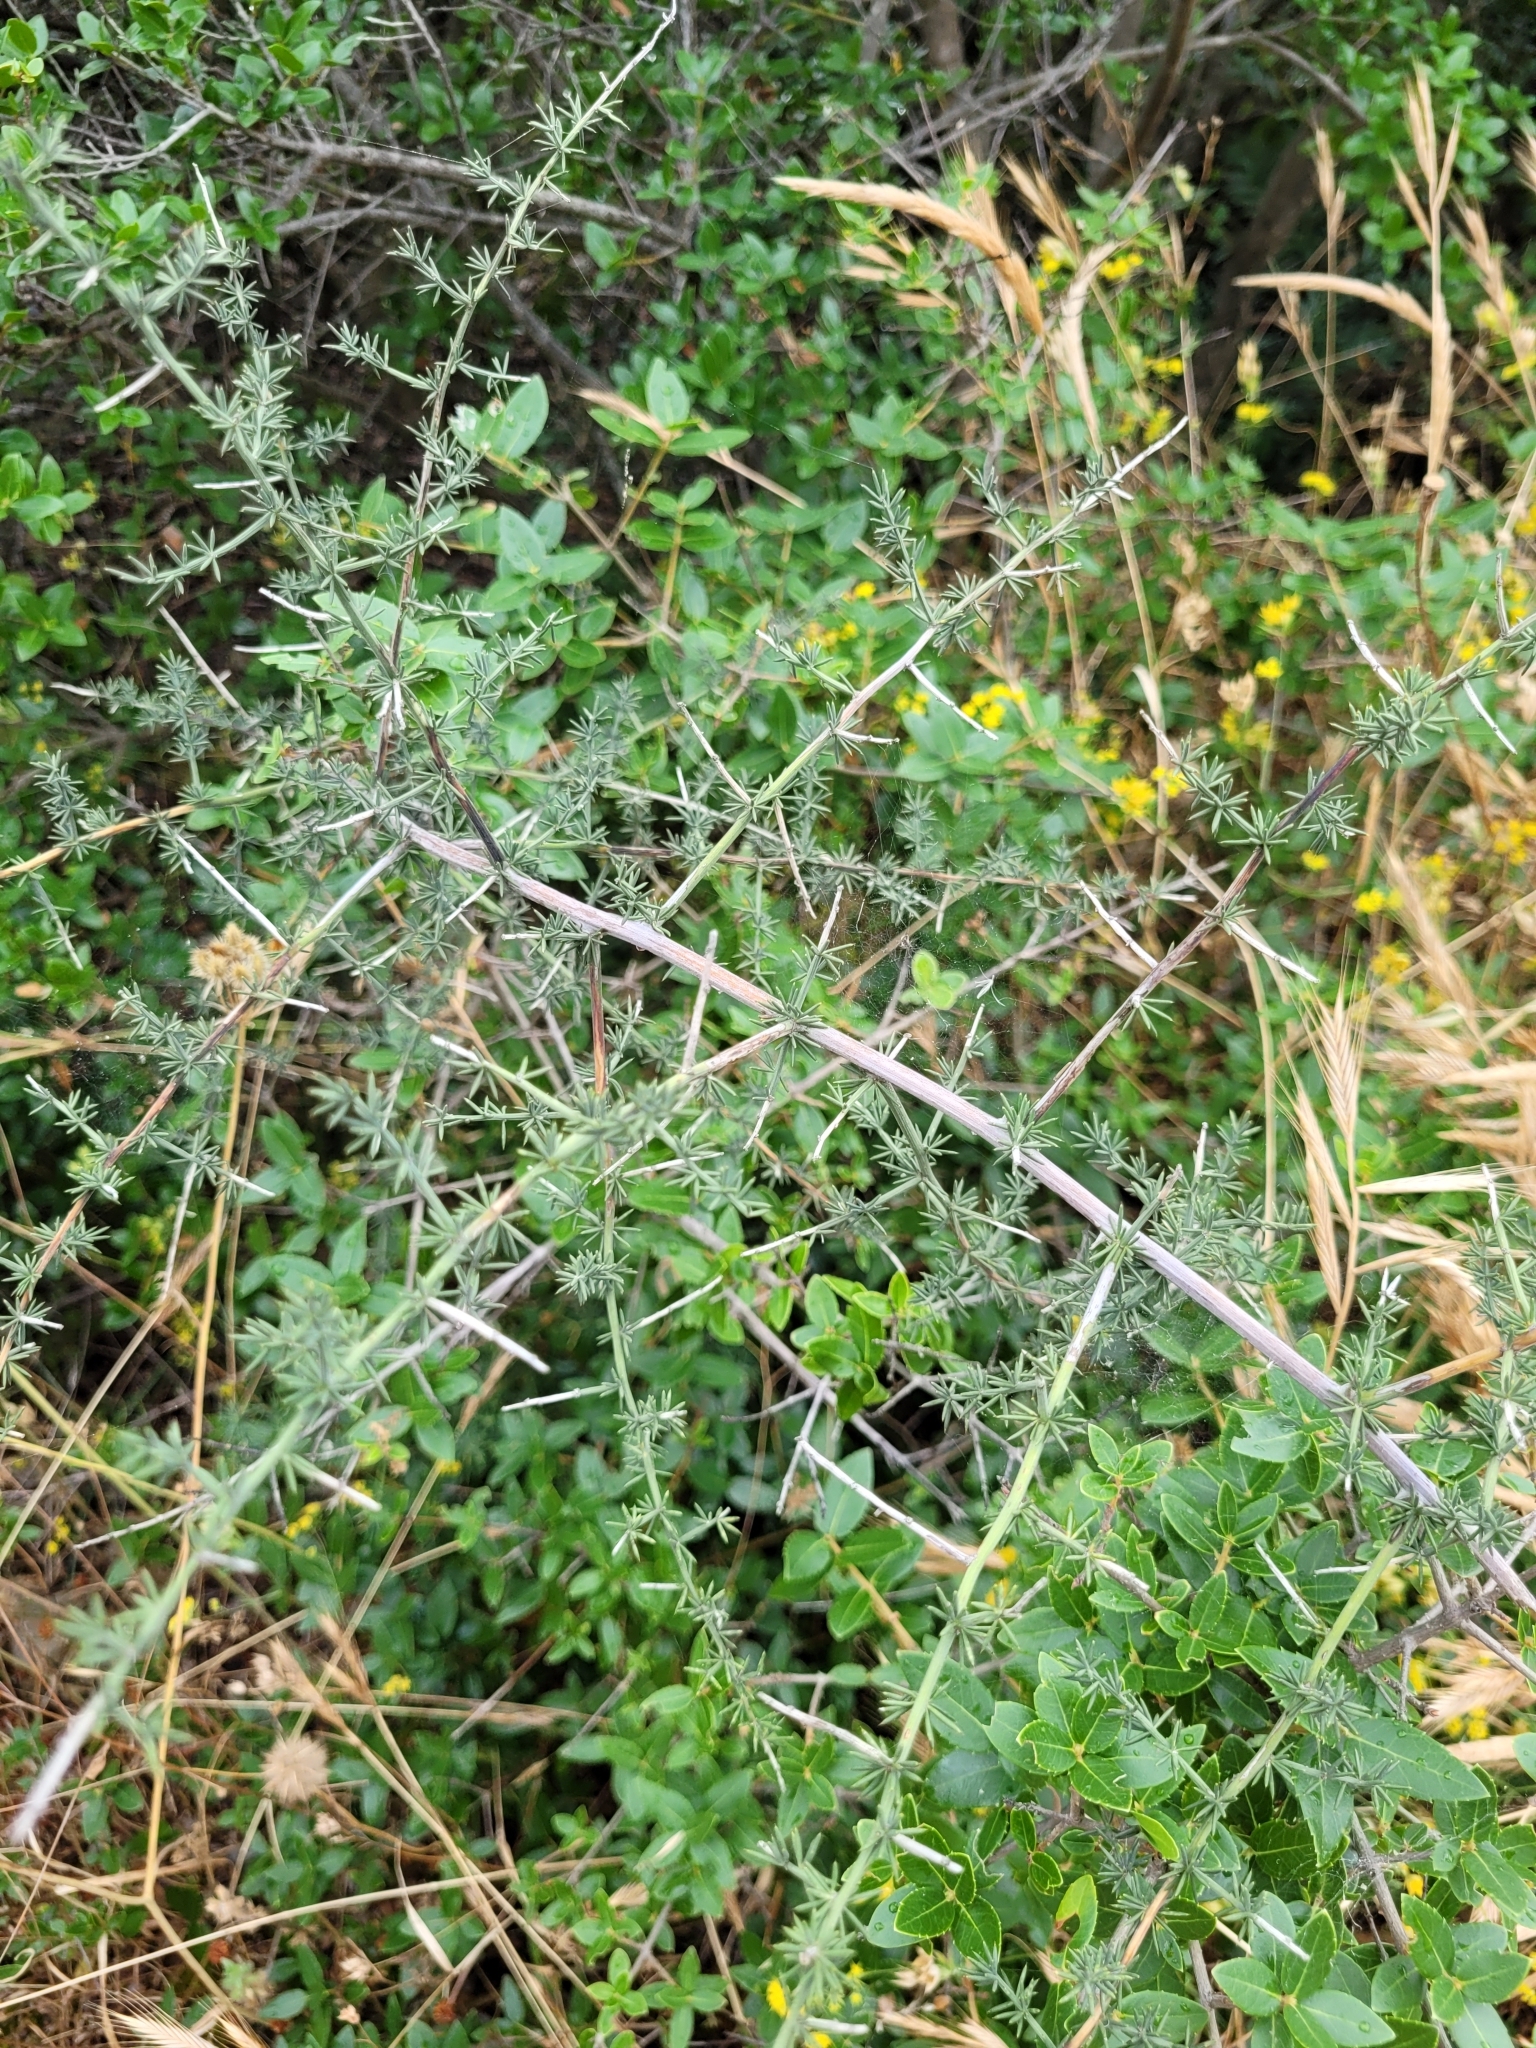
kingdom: Plantae
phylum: Tracheophyta
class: Liliopsida
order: Asparagales
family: Asparagaceae
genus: Asparagus
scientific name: Asparagus acutifolius
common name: Wild asparagus
